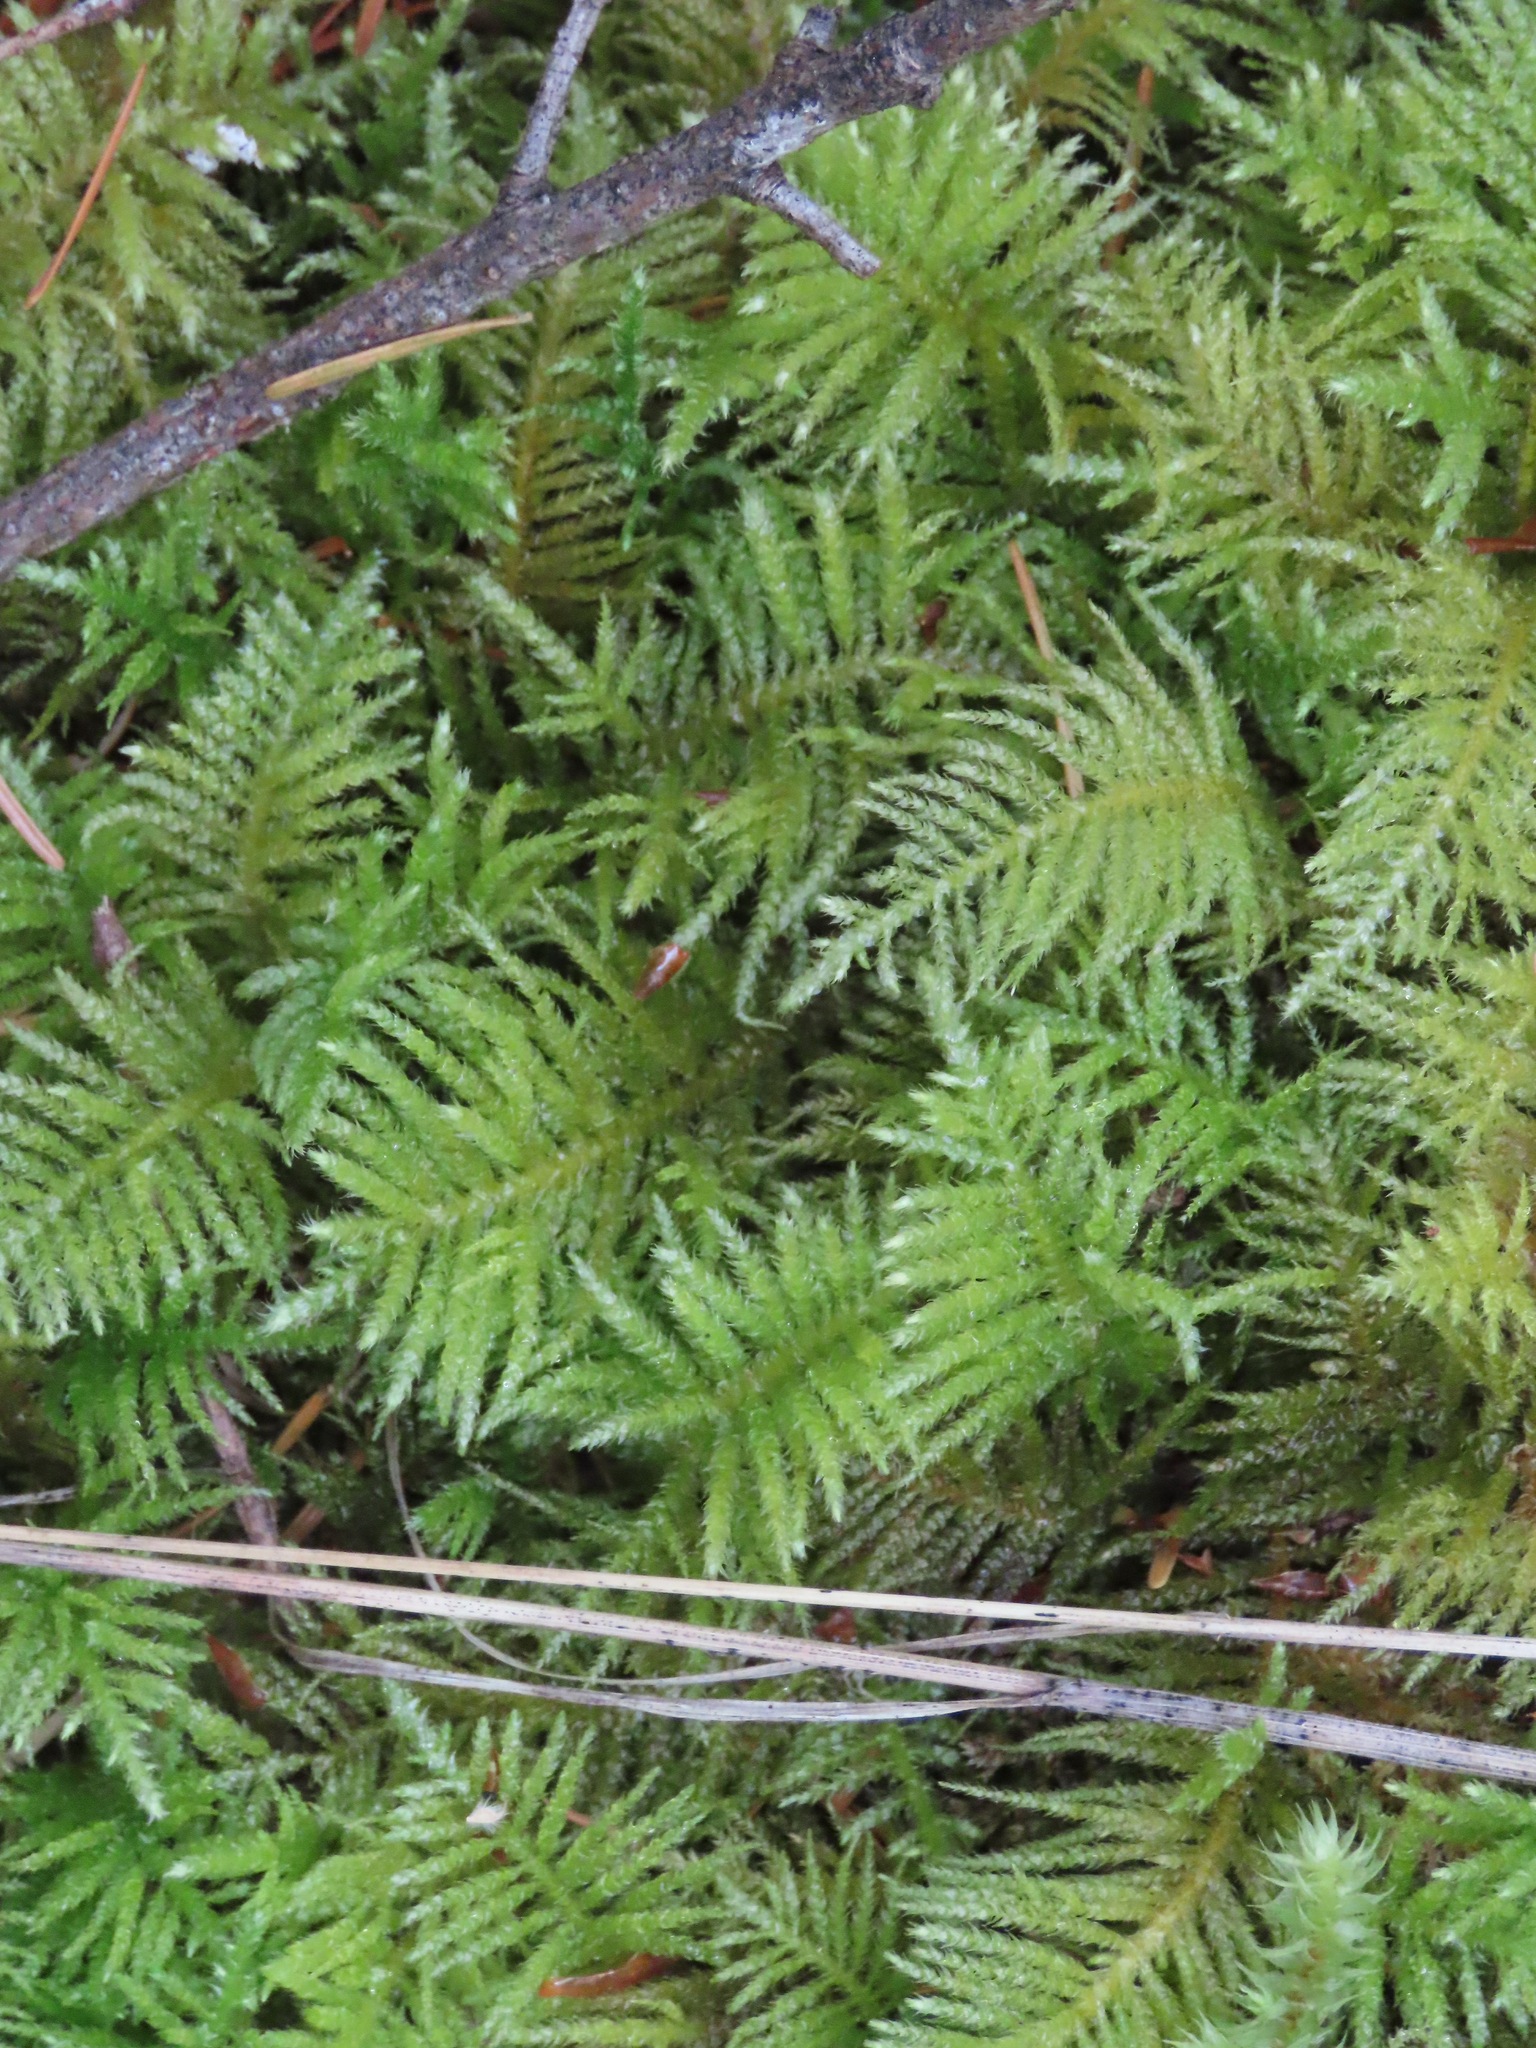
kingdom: Plantae
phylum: Bryophyta
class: Bryopsida
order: Hypnales
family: Brachytheciaceae
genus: Kindbergia
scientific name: Kindbergia oregana
